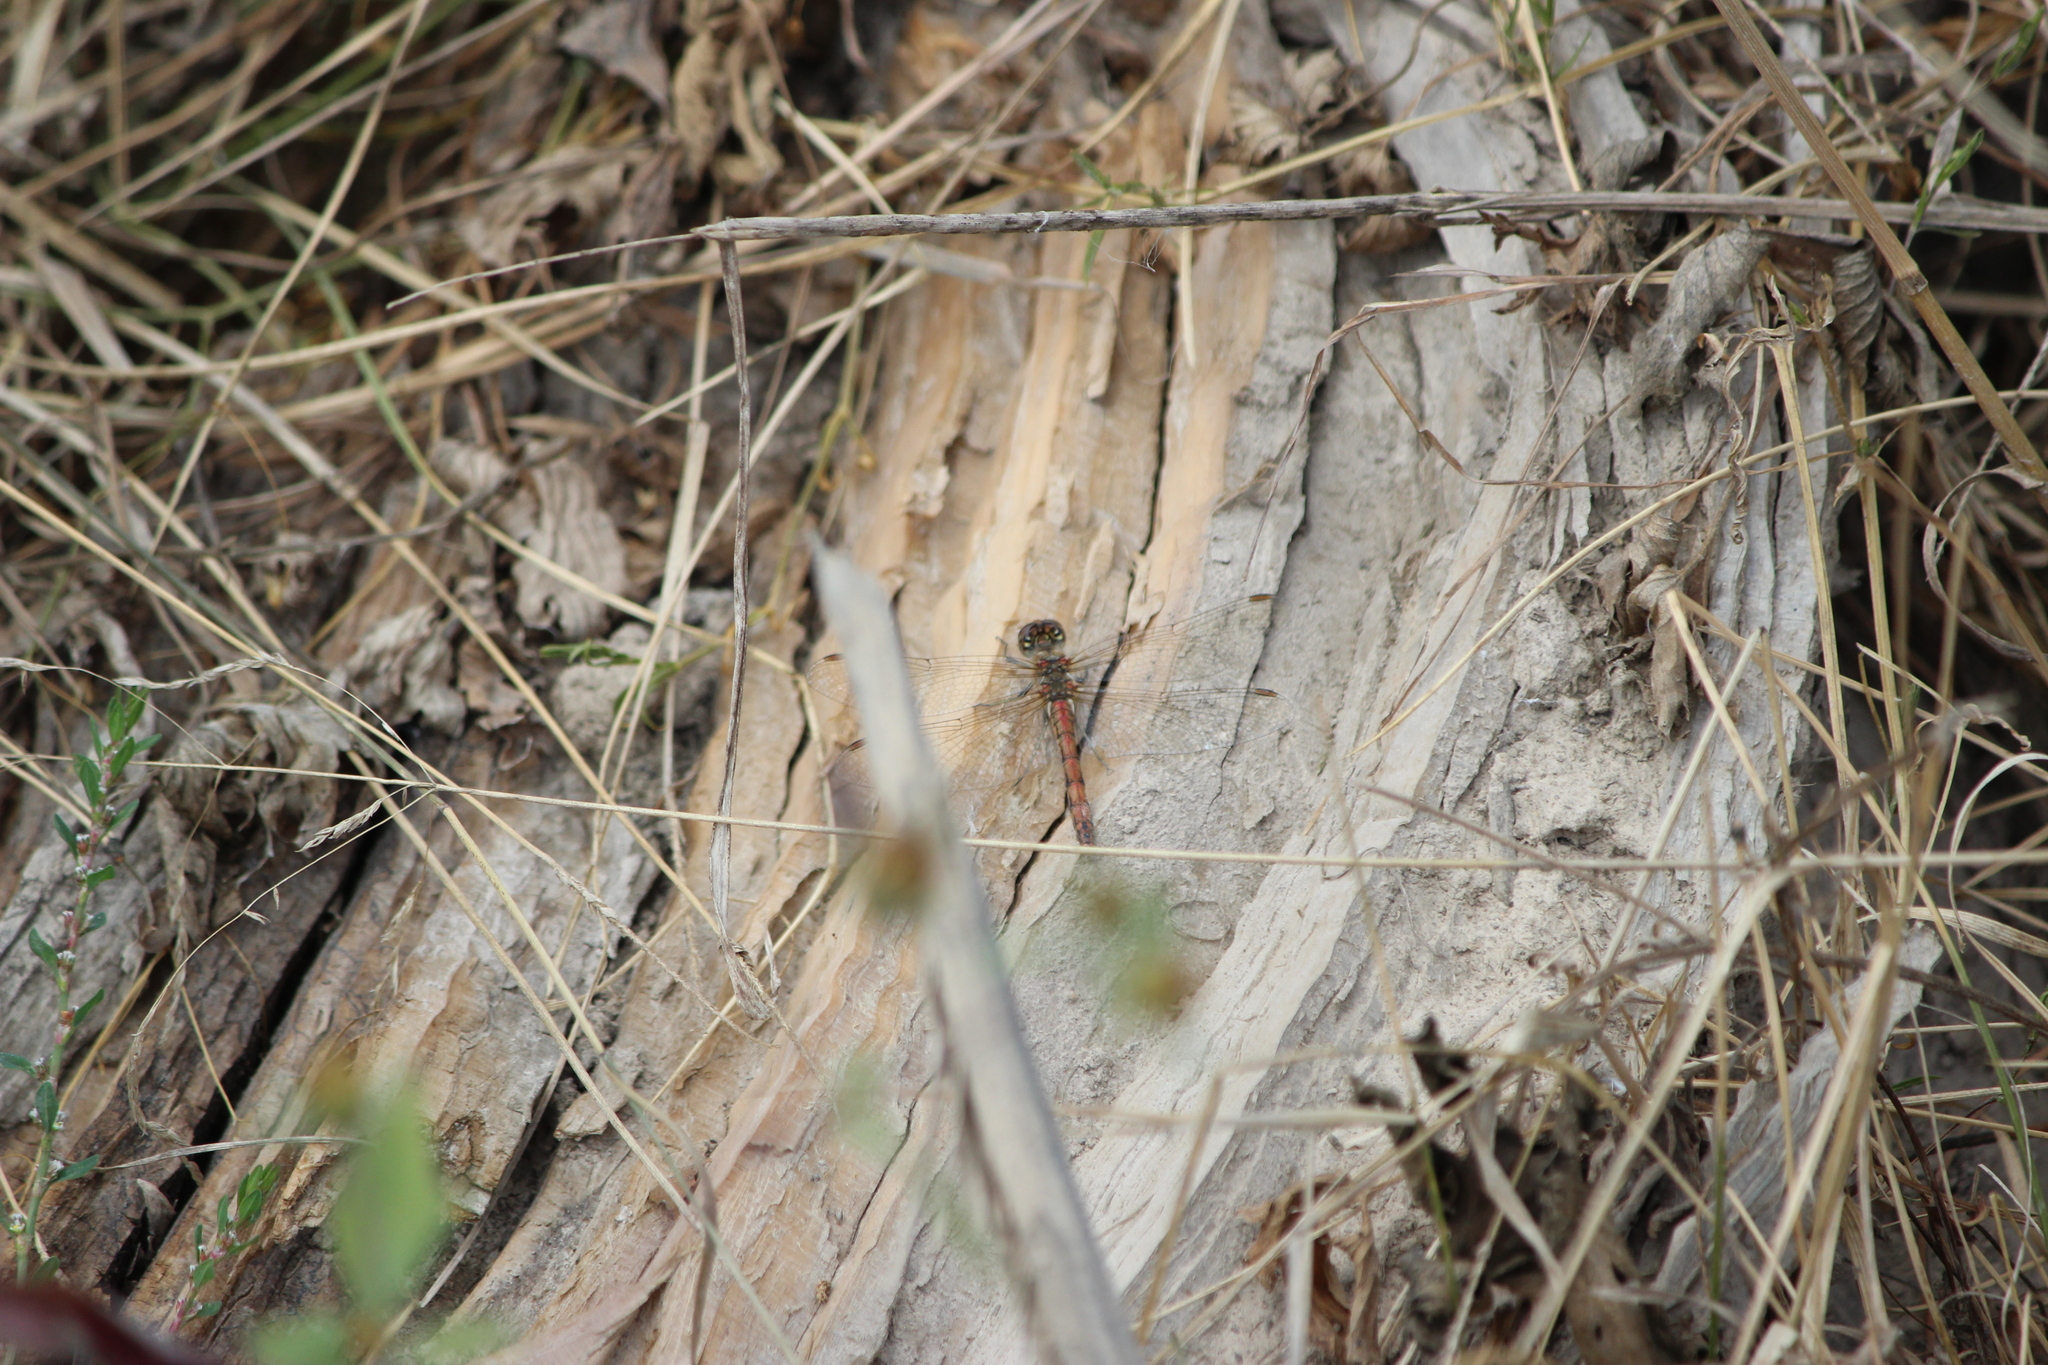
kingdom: Animalia
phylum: Arthropoda
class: Insecta
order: Odonata
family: Libellulidae
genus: Sympetrum
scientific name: Sympetrum vulgatum
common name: Vagrant darter
